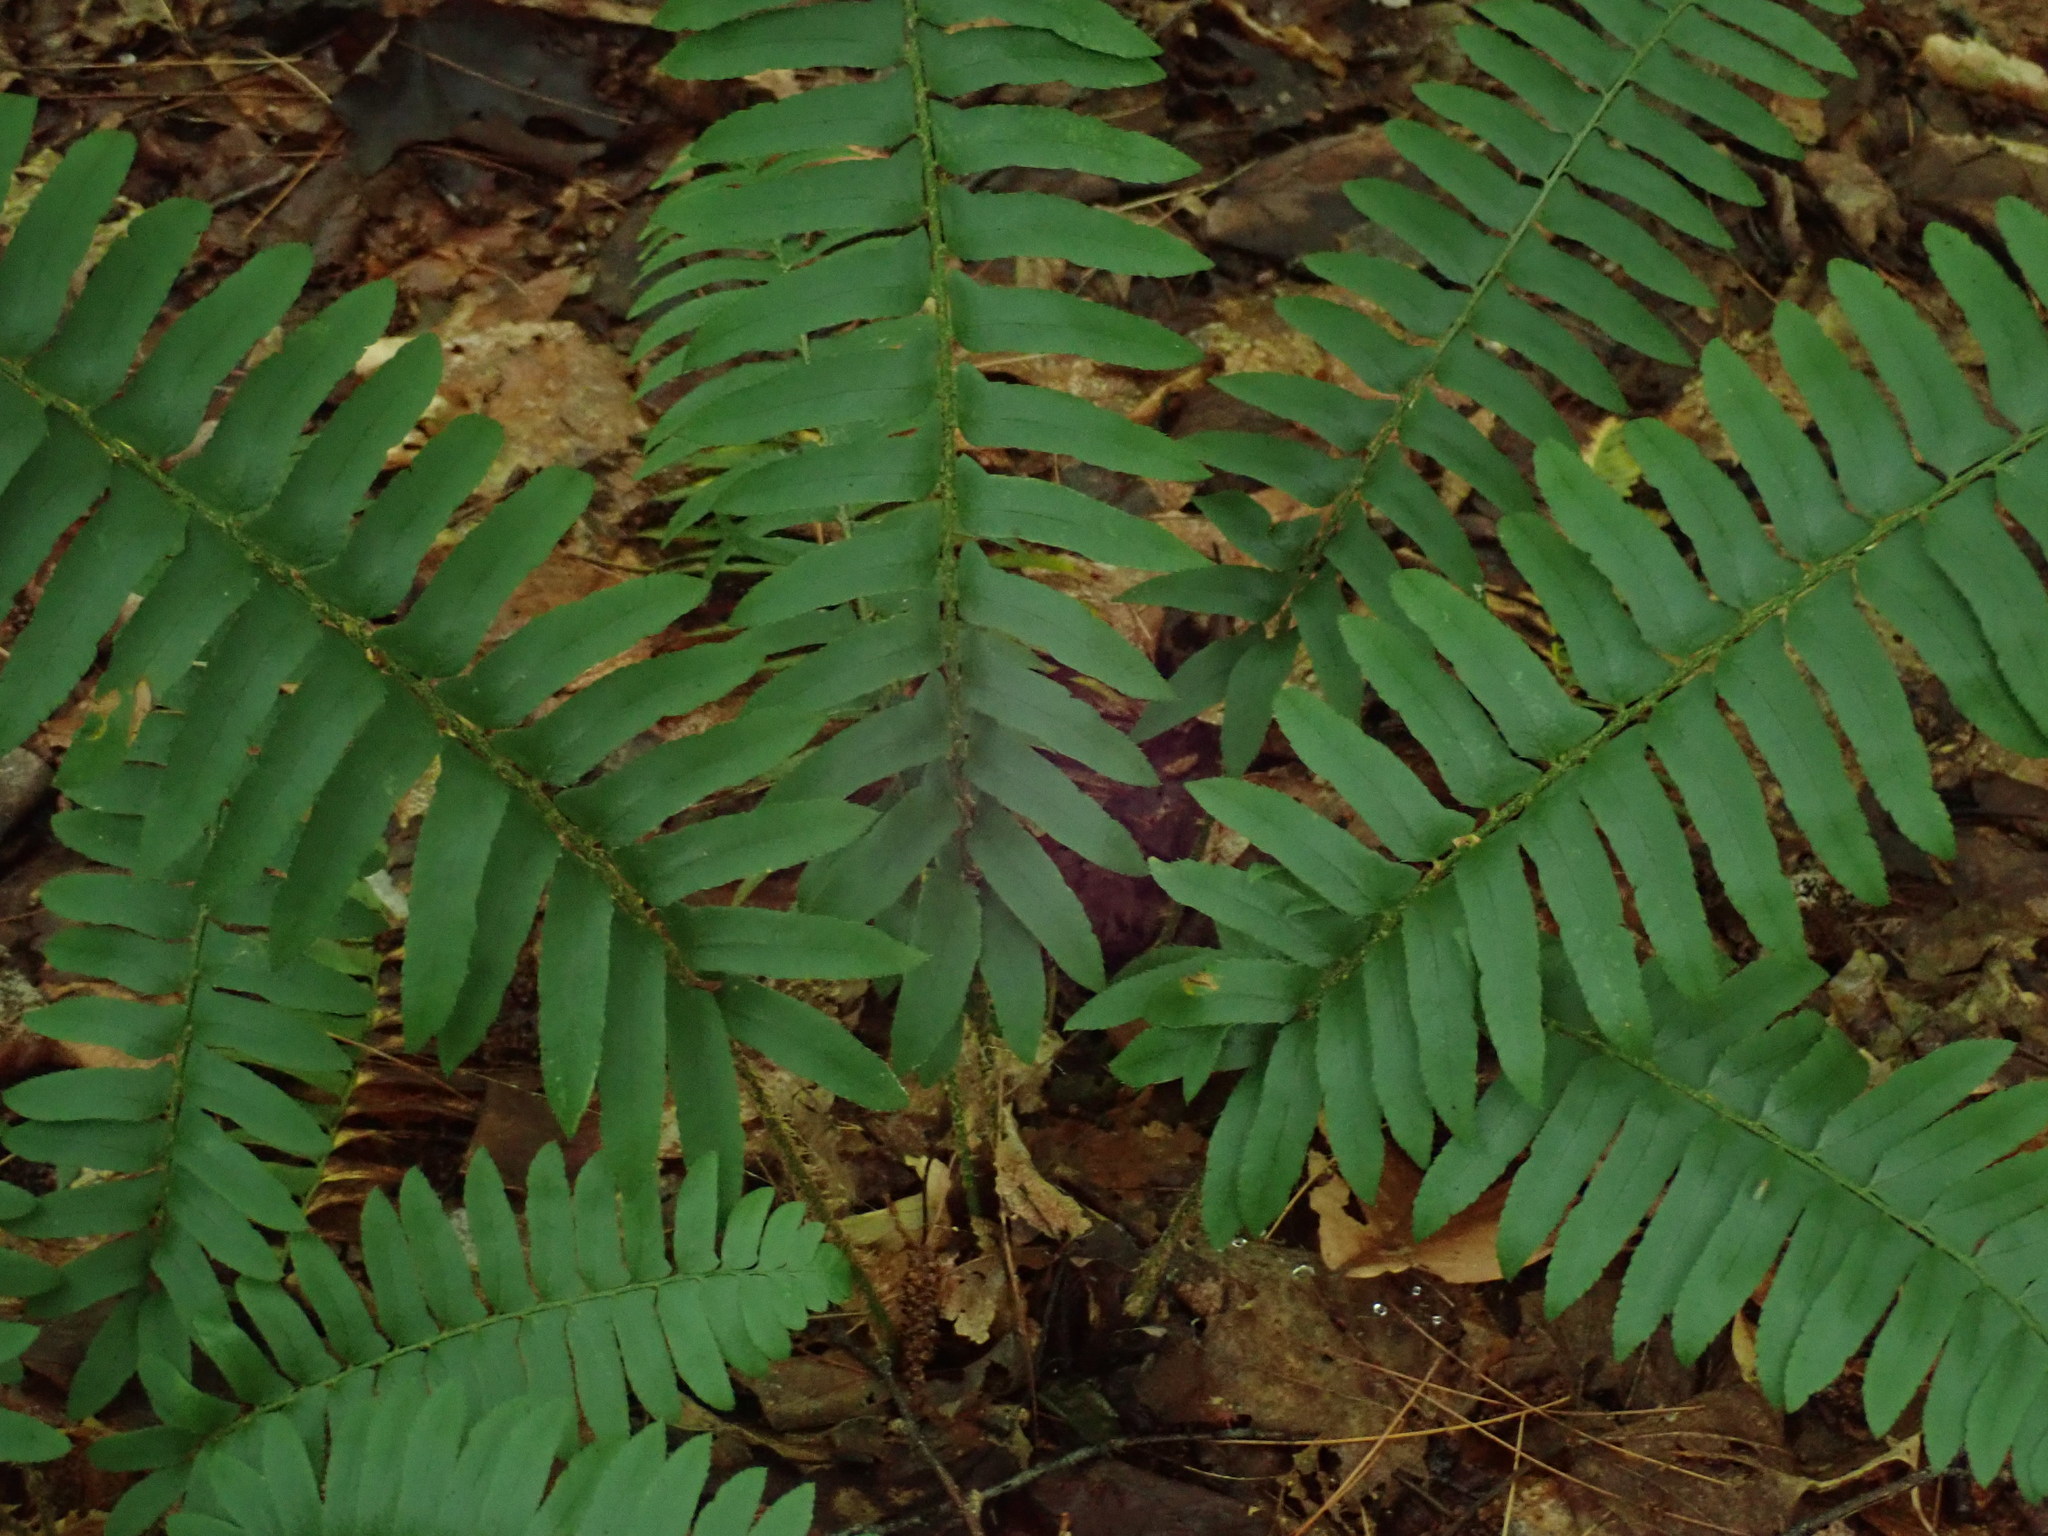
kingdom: Plantae
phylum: Tracheophyta
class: Polypodiopsida
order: Polypodiales
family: Dryopteridaceae
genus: Polystichum
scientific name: Polystichum acrostichoides
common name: Christmas fern
